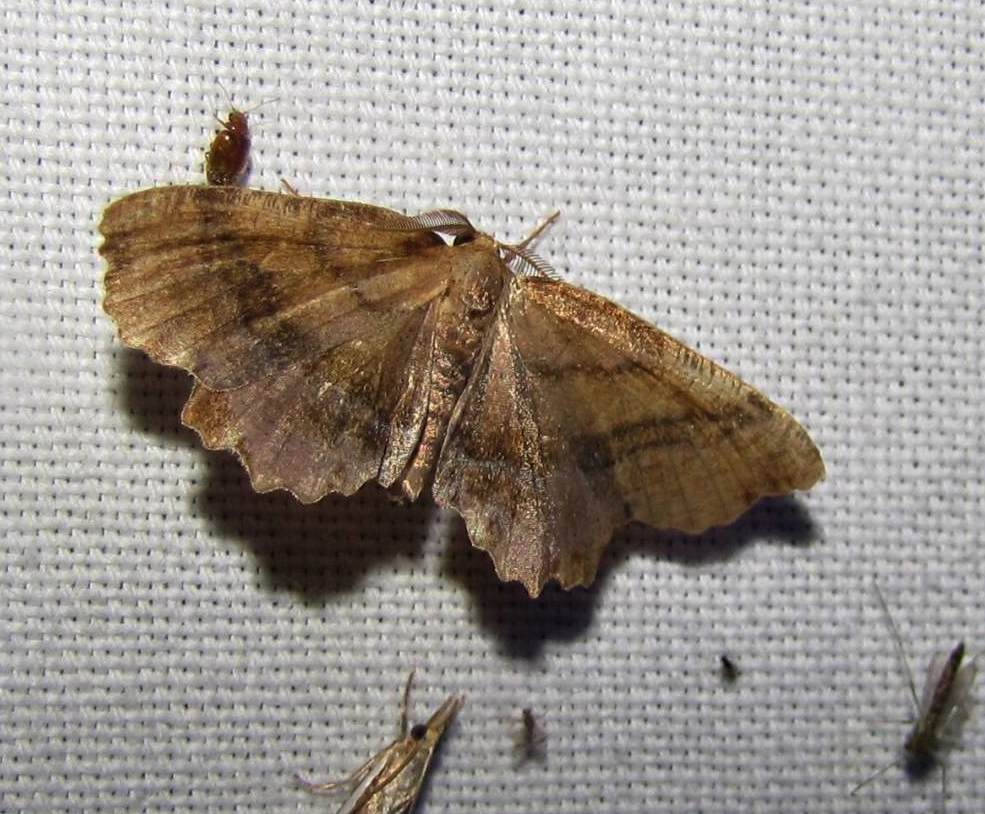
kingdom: Animalia
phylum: Arthropoda
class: Insecta
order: Lepidoptera
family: Geometridae
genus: Cepphis
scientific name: Cepphis armataria
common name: Scallop moth
